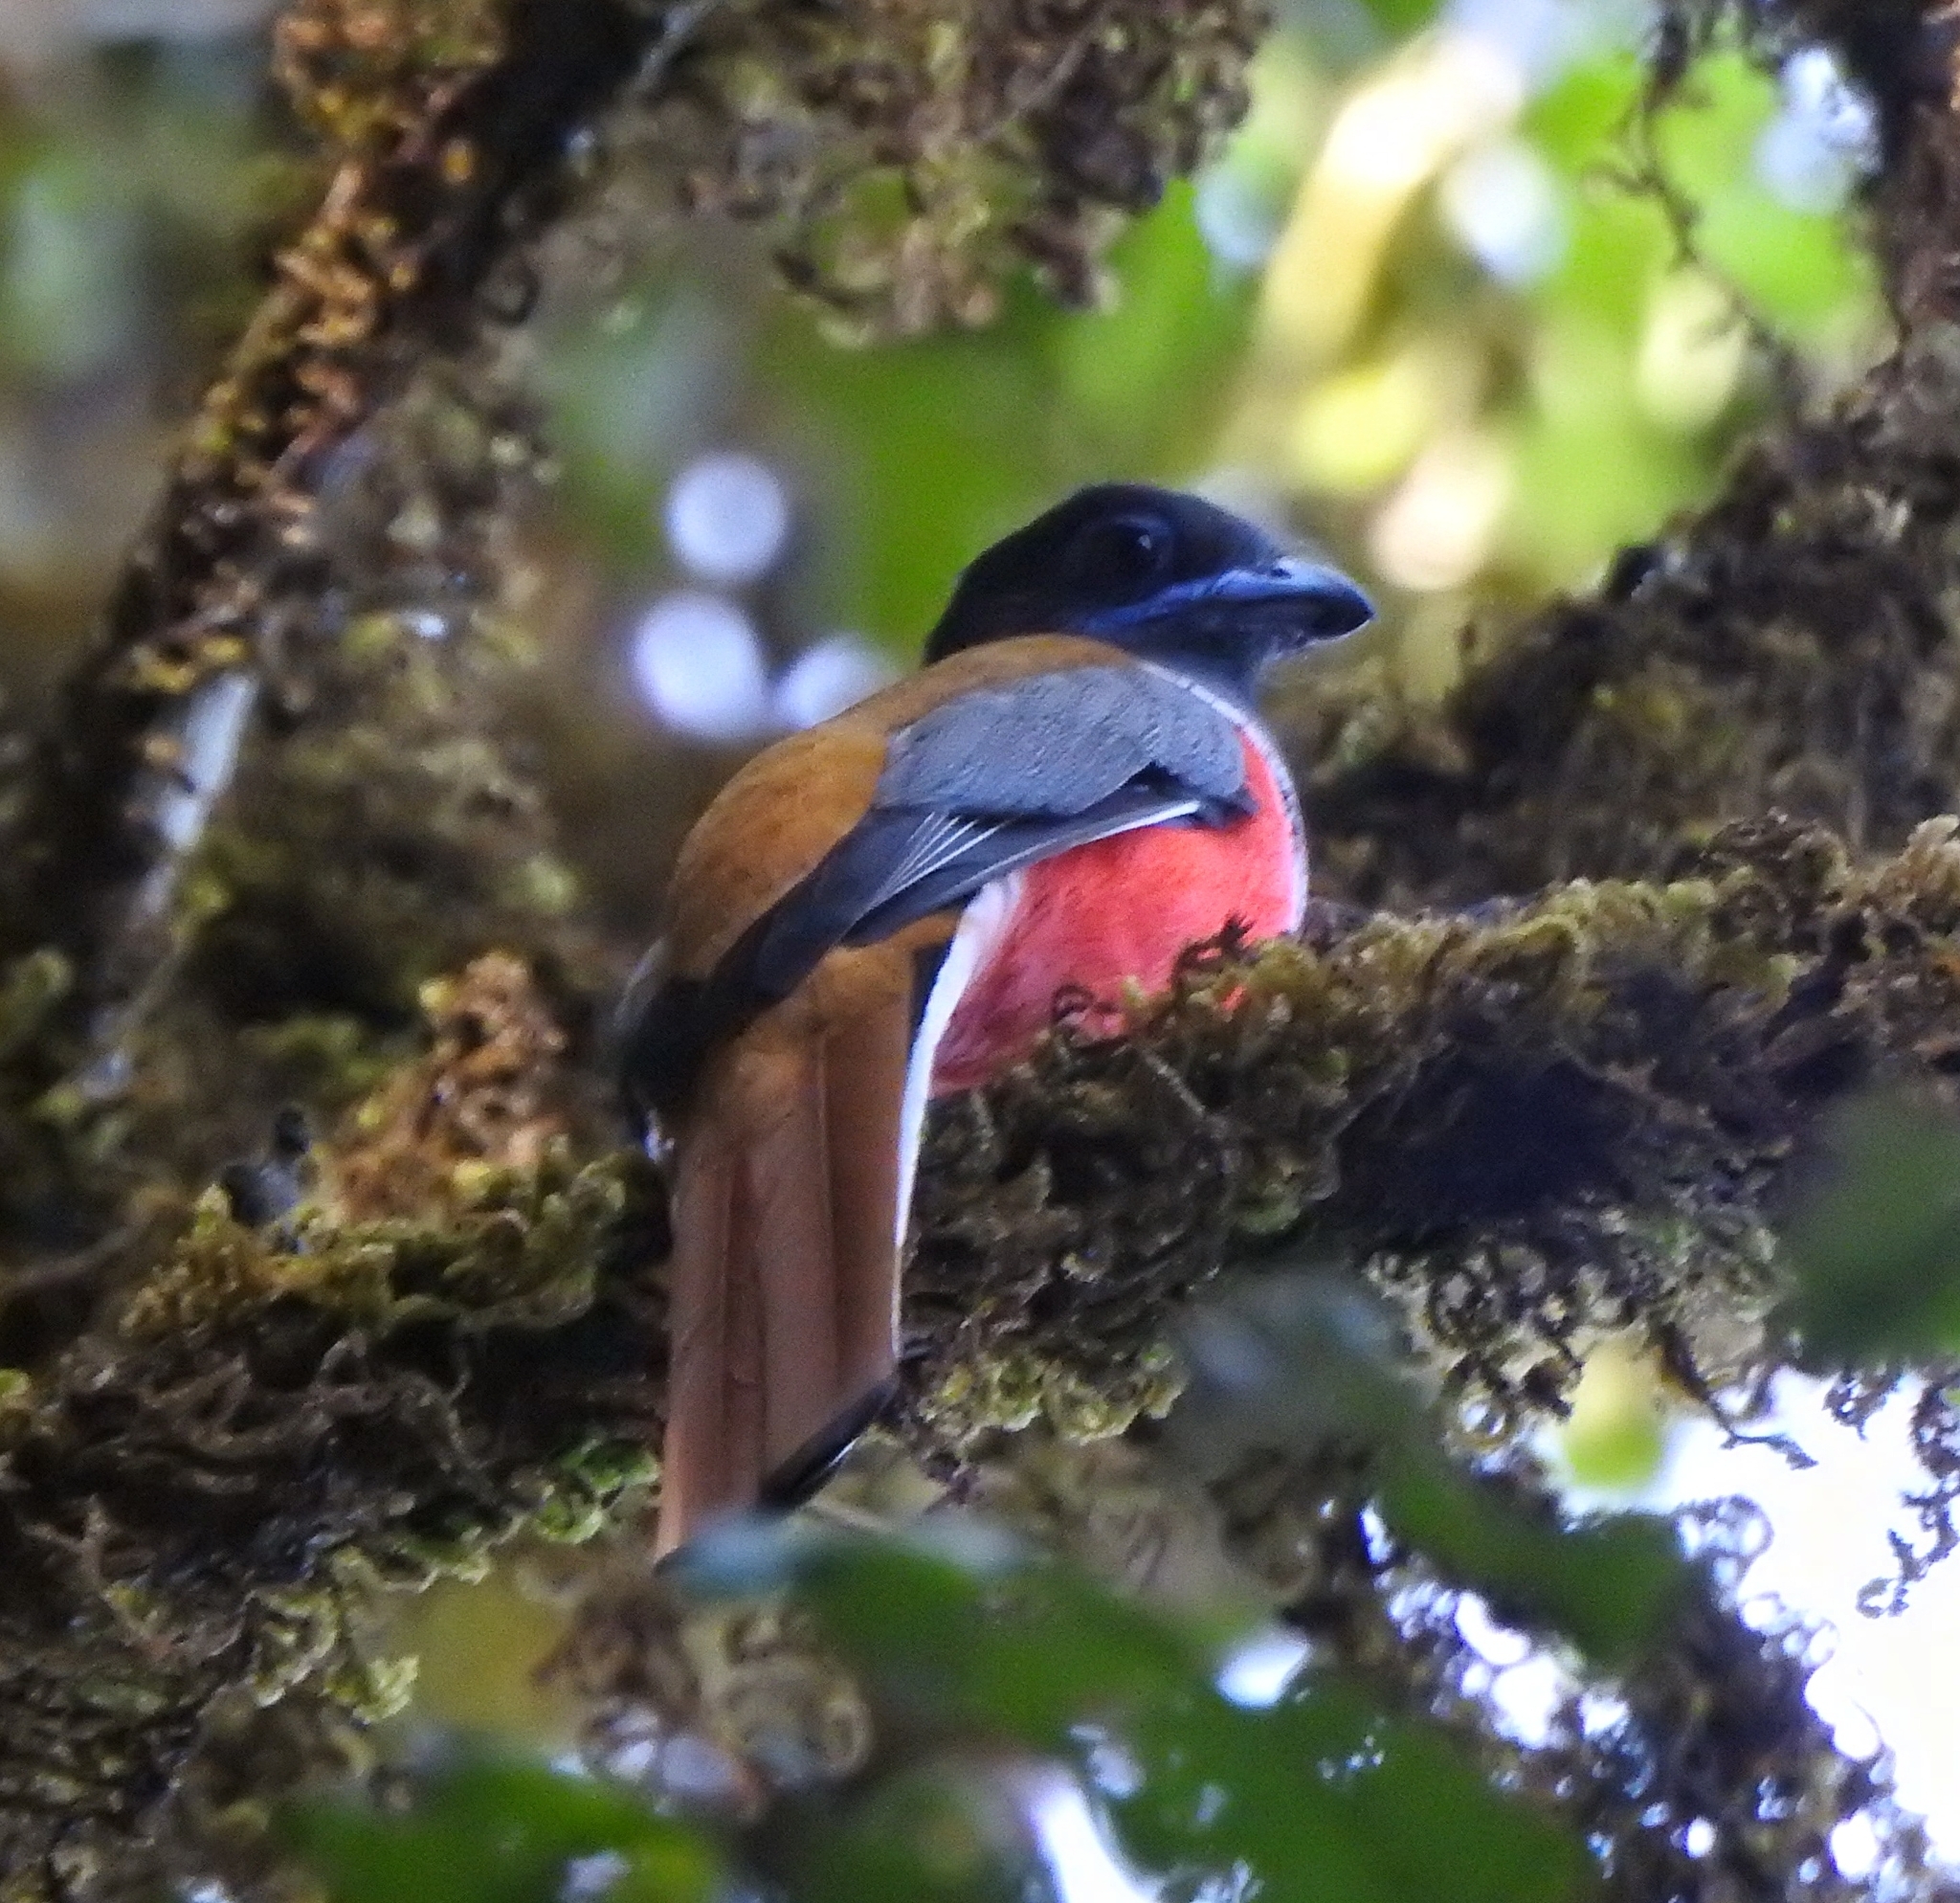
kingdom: Animalia
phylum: Chordata
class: Aves
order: Trogoniformes
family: Trogonidae
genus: Harpactes
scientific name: Harpactes fasciatus
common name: Malabar trogon
